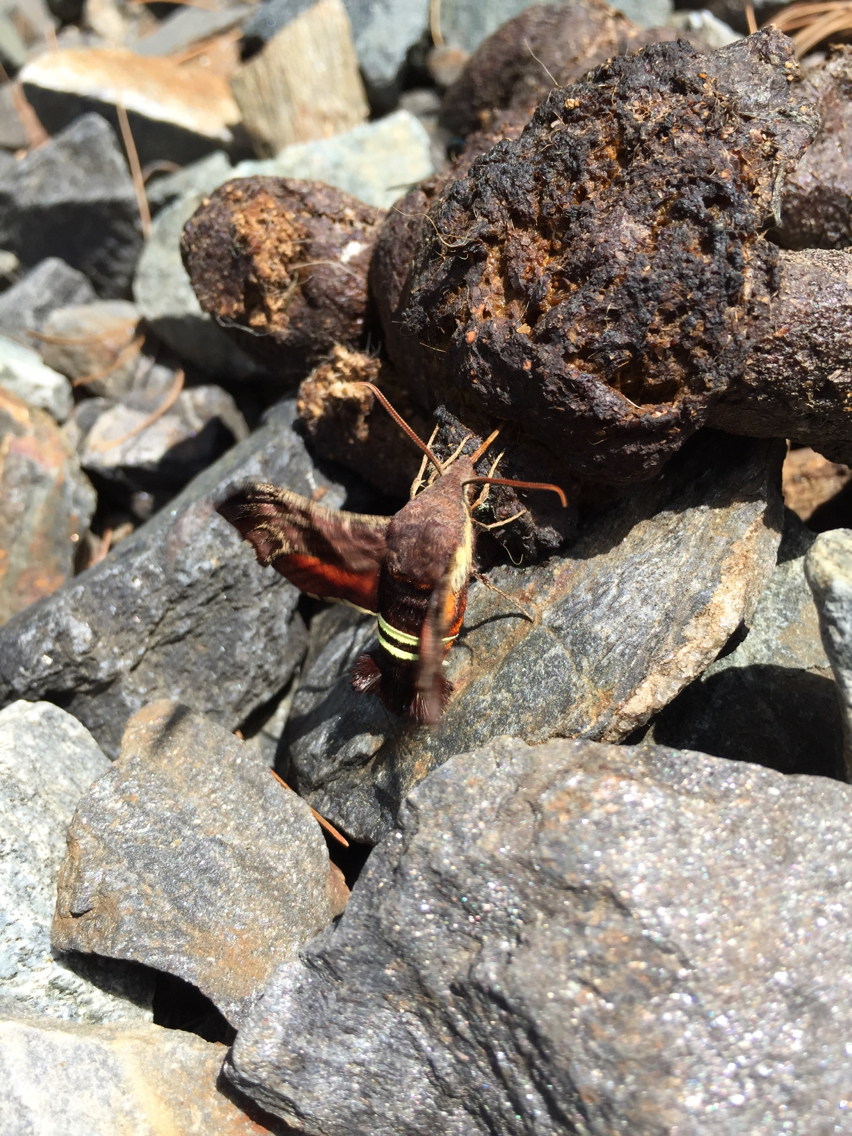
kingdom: Animalia
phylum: Arthropoda
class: Insecta
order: Lepidoptera
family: Sphingidae
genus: Amphion
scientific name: Amphion floridensis
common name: Nessus sphinx
